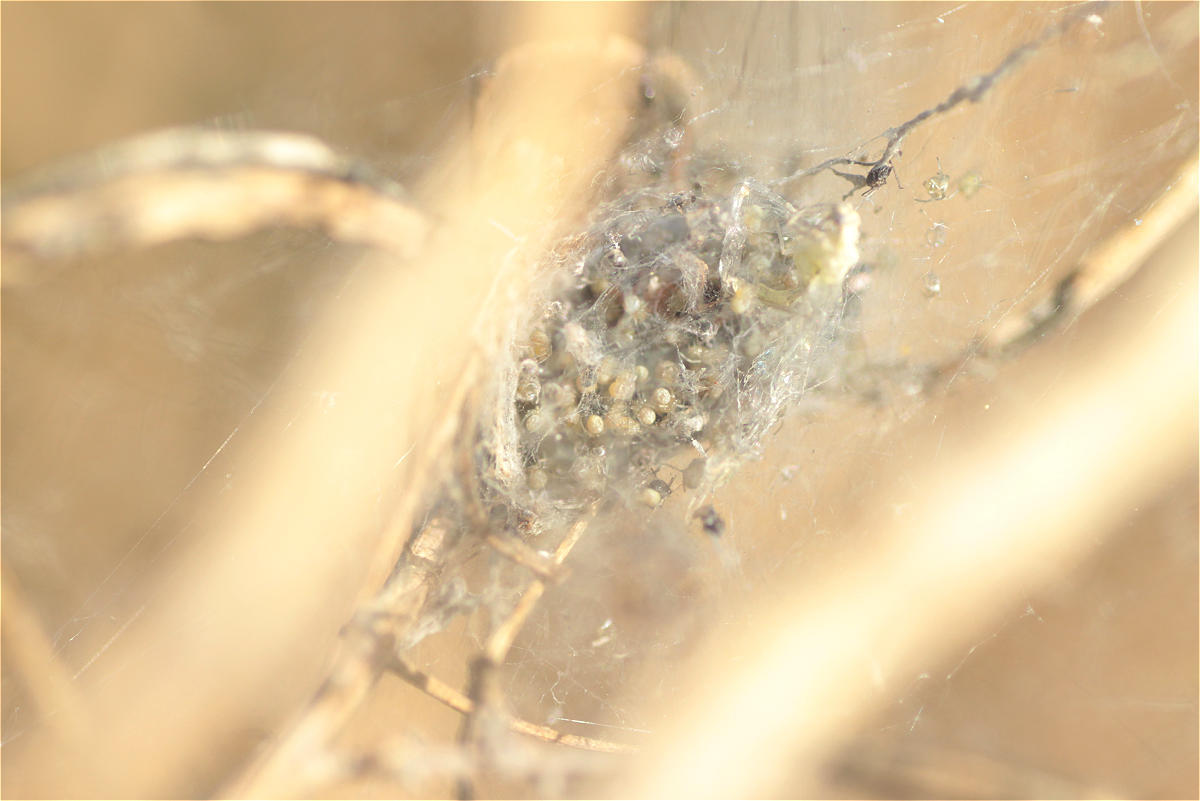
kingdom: Animalia
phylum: Arthropoda
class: Arachnida
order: Araneae
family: Theridiidae
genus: Phylloneta
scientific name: Phylloneta
